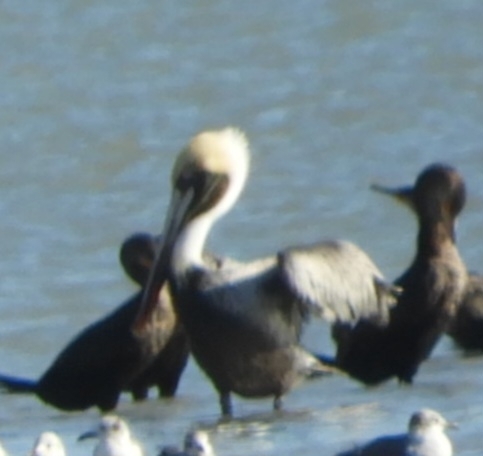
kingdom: Animalia
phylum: Chordata
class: Aves
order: Pelecaniformes
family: Pelecanidae
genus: Pelecanus
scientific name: Pelecanus occidentalis
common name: Brown pelican
